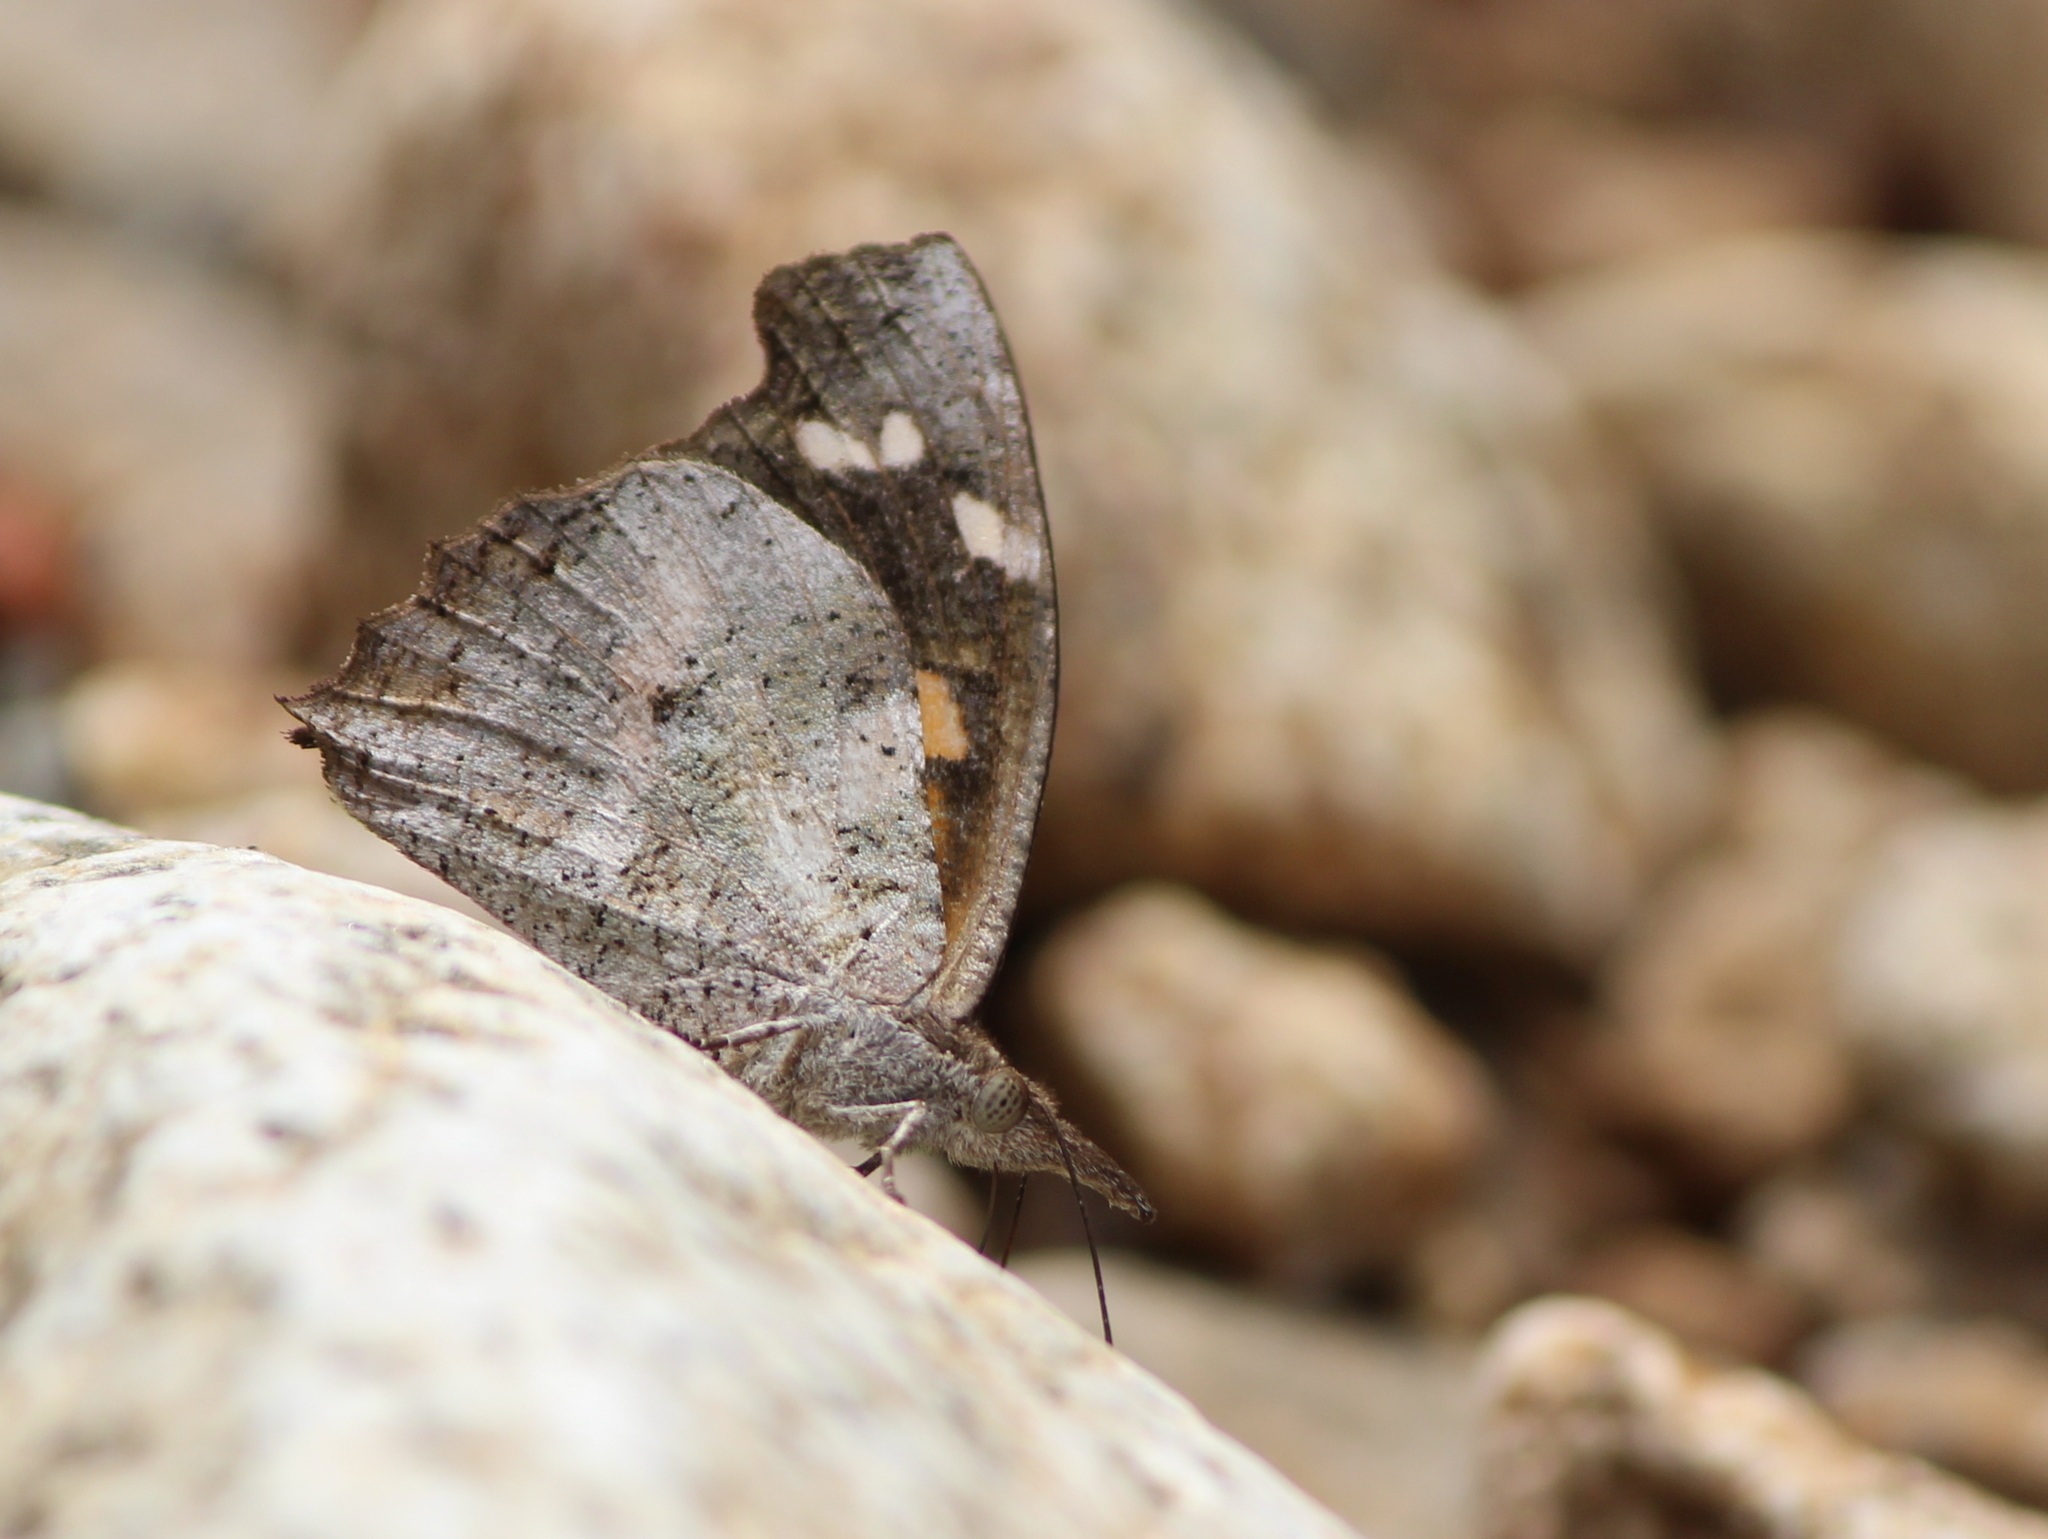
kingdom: Animalia
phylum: Arthropoda
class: Insecta
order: Lepidoptera
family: Nymphalidae
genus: Libythea
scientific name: Libythea laius
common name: African snout
